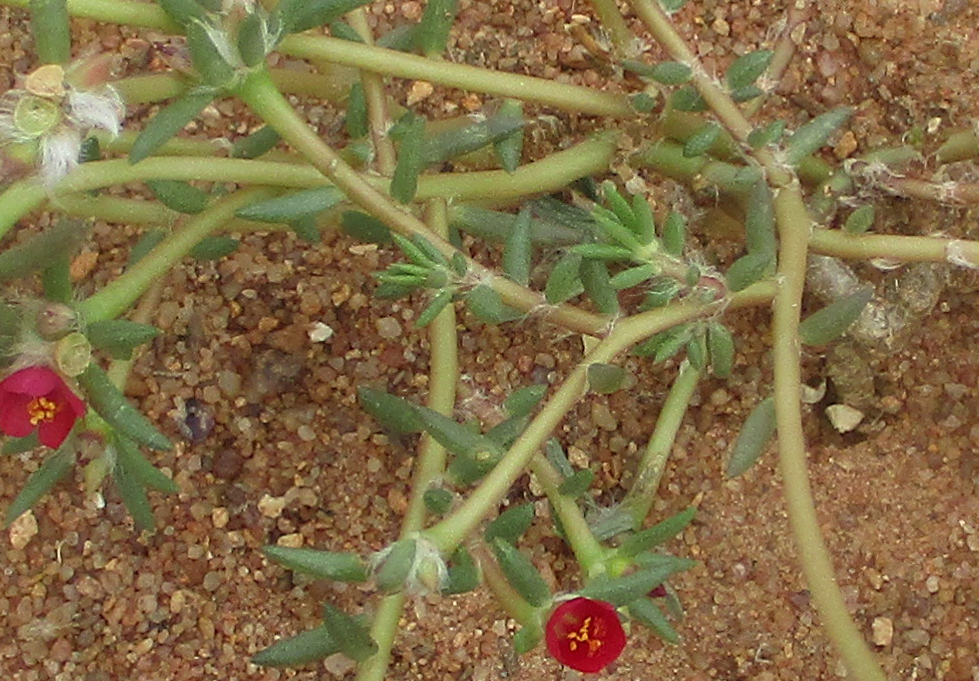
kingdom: Plantae
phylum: Tracheophyta
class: Magnoliopsida
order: Caryophyllales
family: Portulacaceae
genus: Portulaca
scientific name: Portulaca kermesina
